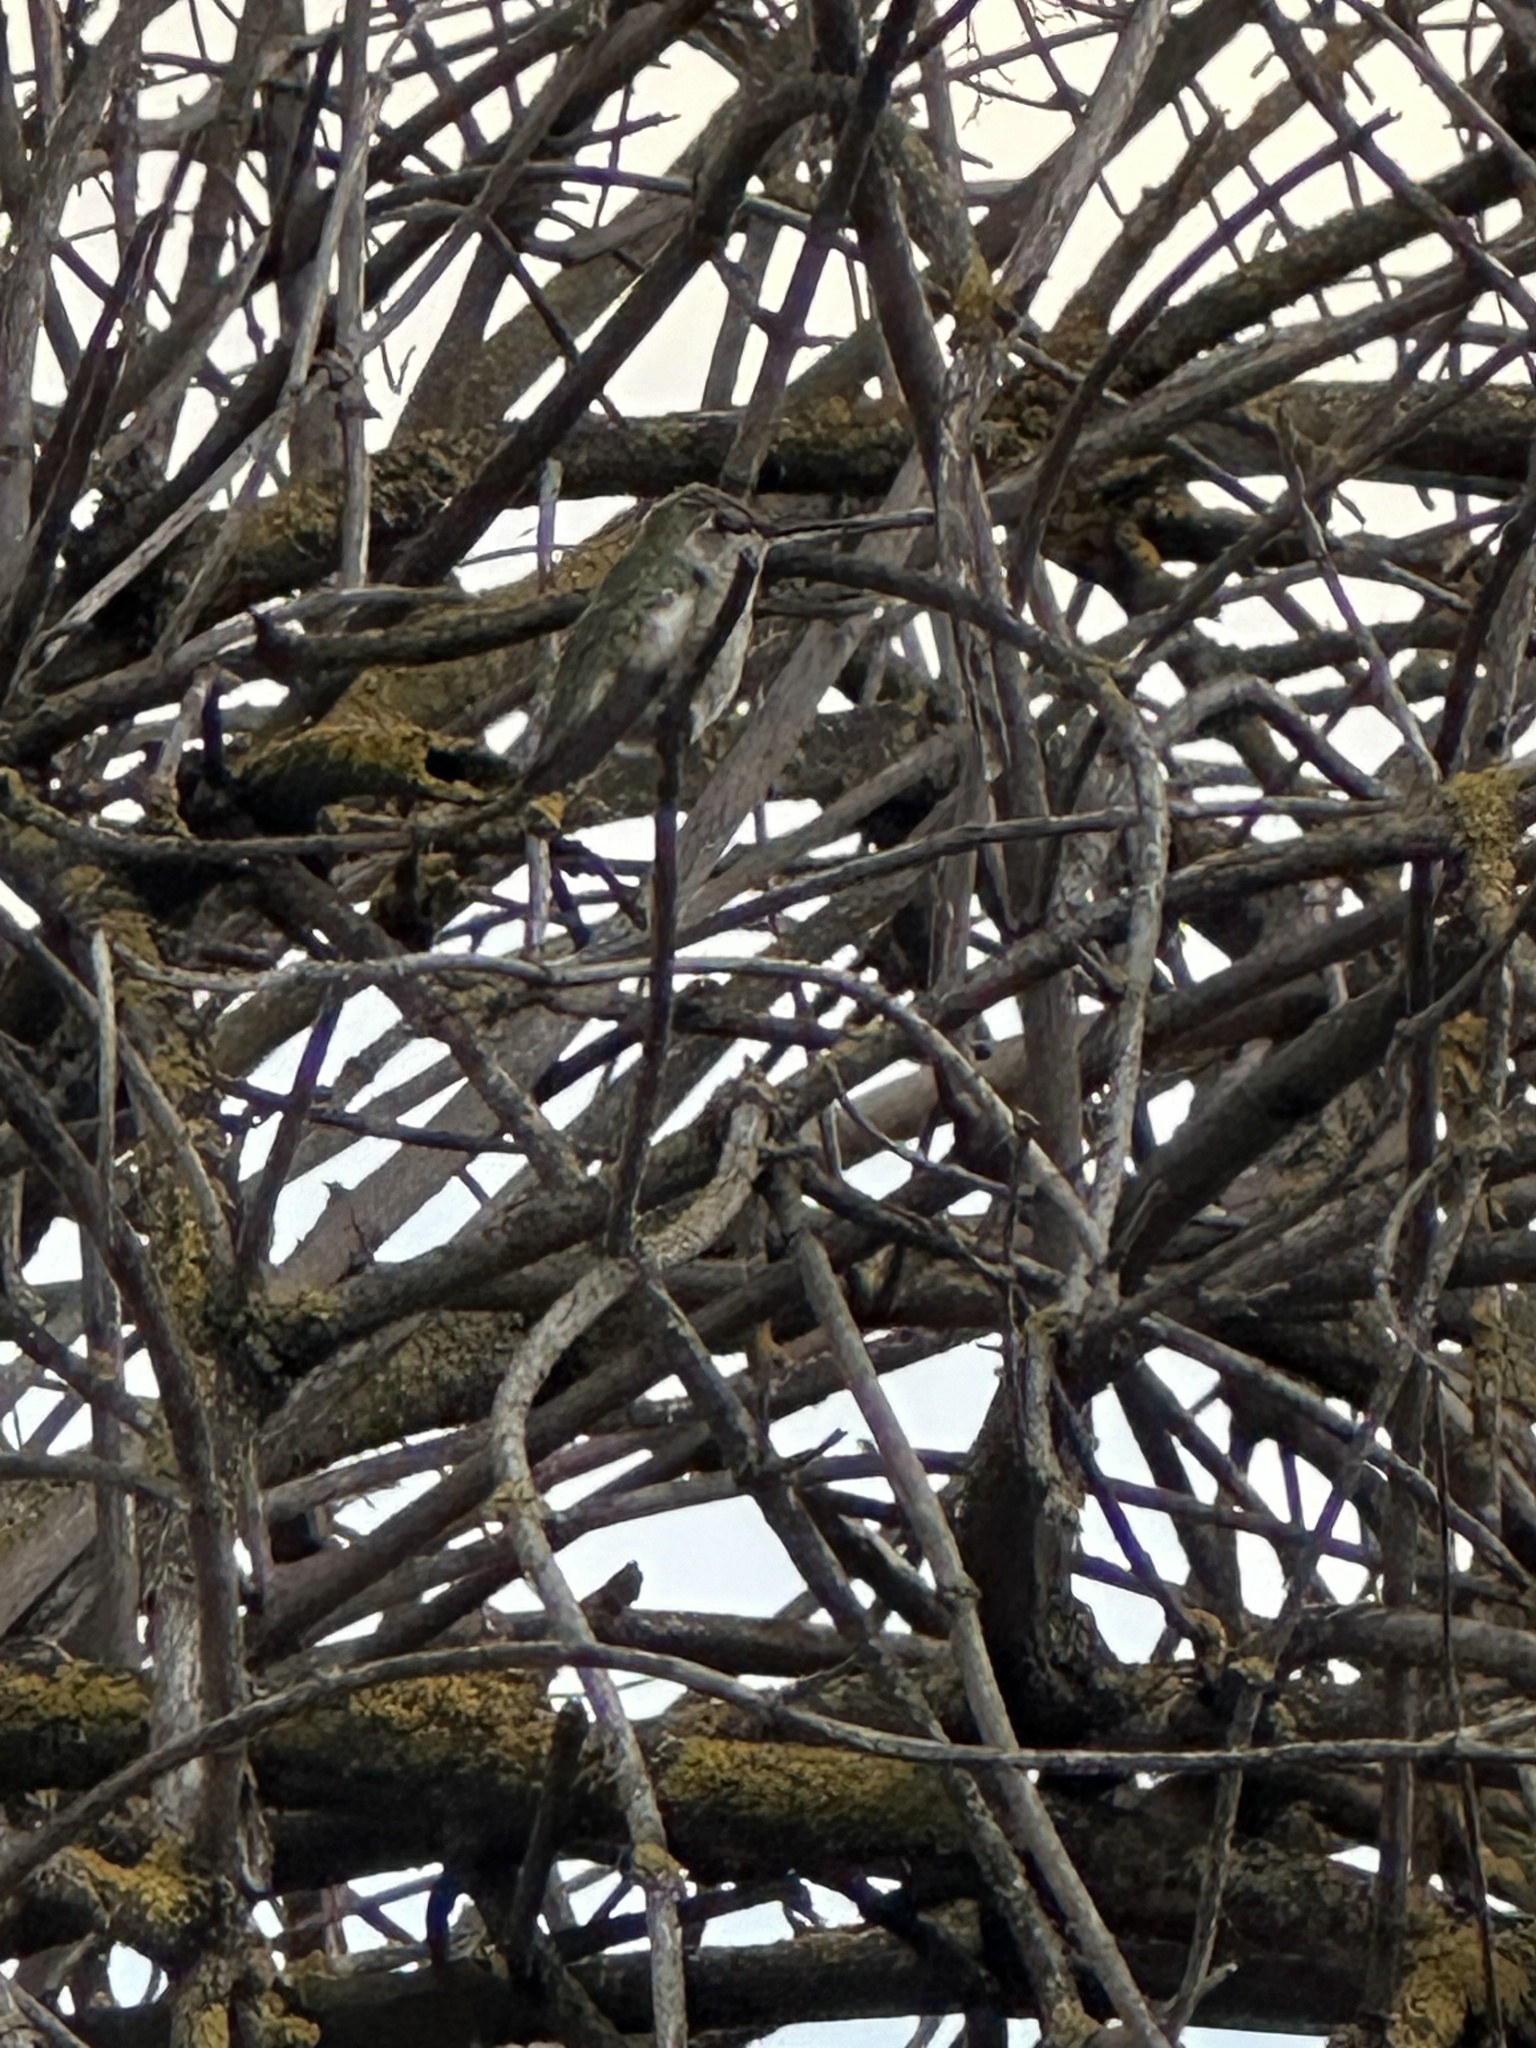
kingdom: Animalia
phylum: Chordata
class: Aves
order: Apodiformes
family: Trochilidae
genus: Calypte
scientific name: Calypte anna
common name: Anna's hummingbird
